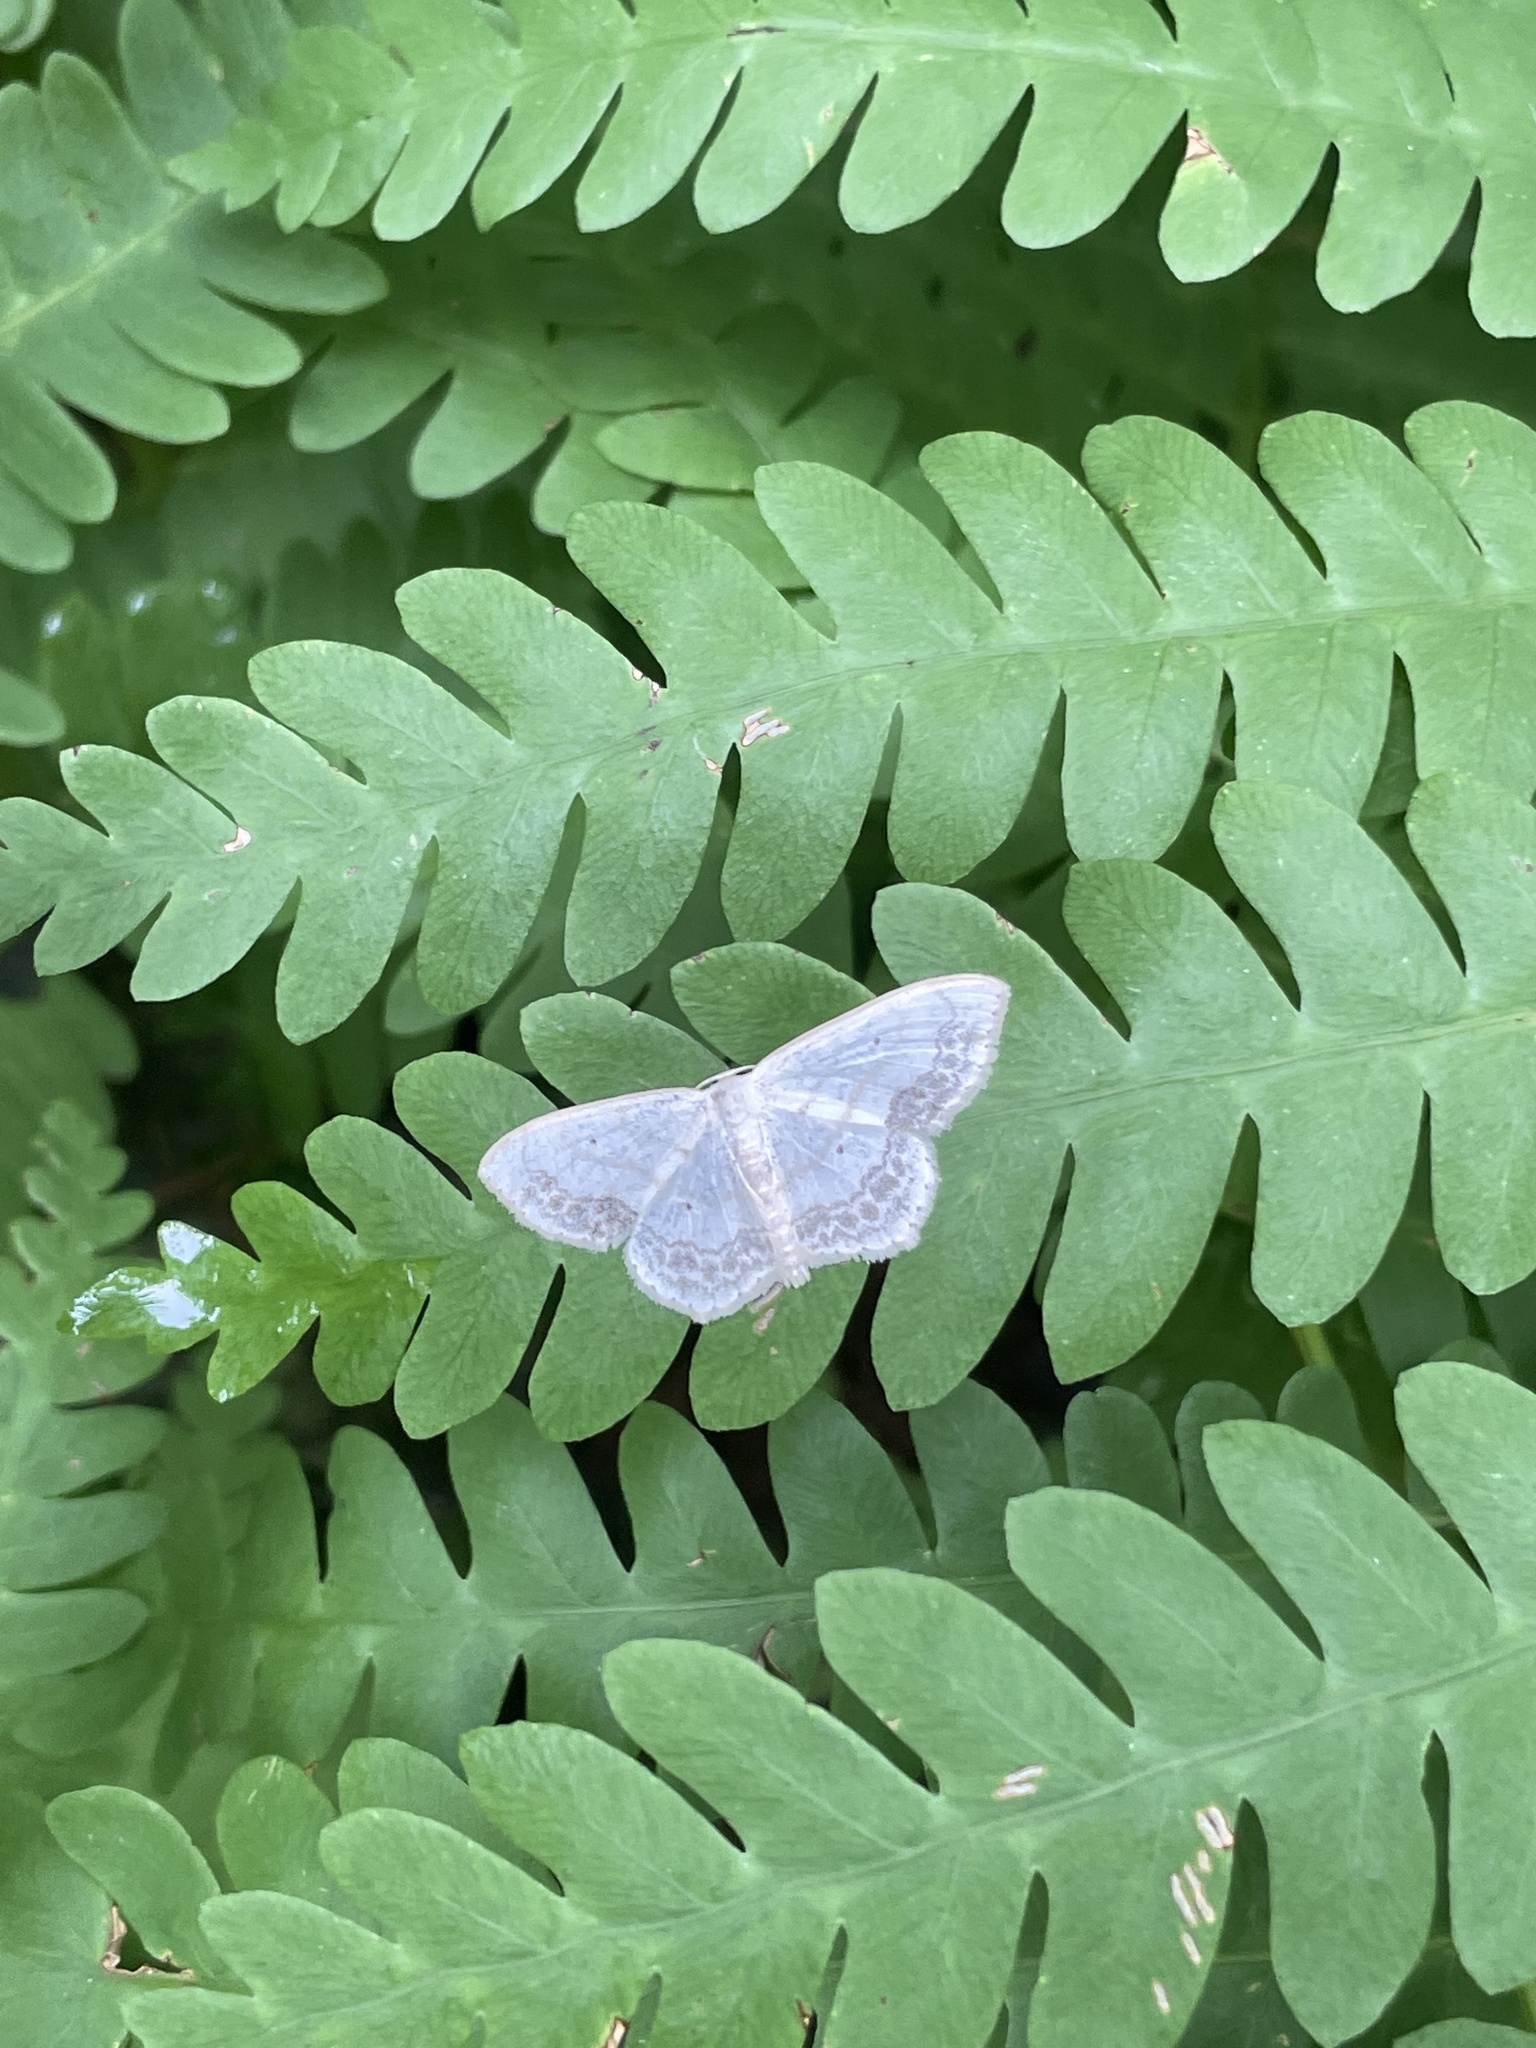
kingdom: Animalia
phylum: Arthropoda
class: Insecta
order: Lepidoptera
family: Geometridae
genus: Scopula
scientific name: Scopula limboundata
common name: Large lace border
